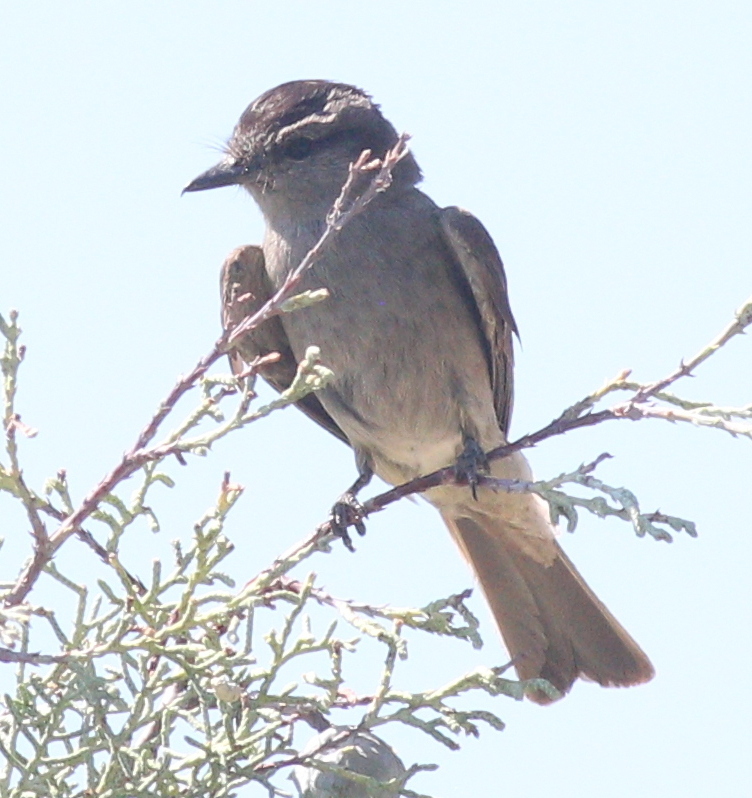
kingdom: Animalia
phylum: Chordata
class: Aves
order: Passeriformes
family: Tyrannidae
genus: Empidonomus
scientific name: Empidonomus aurantioatrocristatus
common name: Crowned slaty flycatcher
